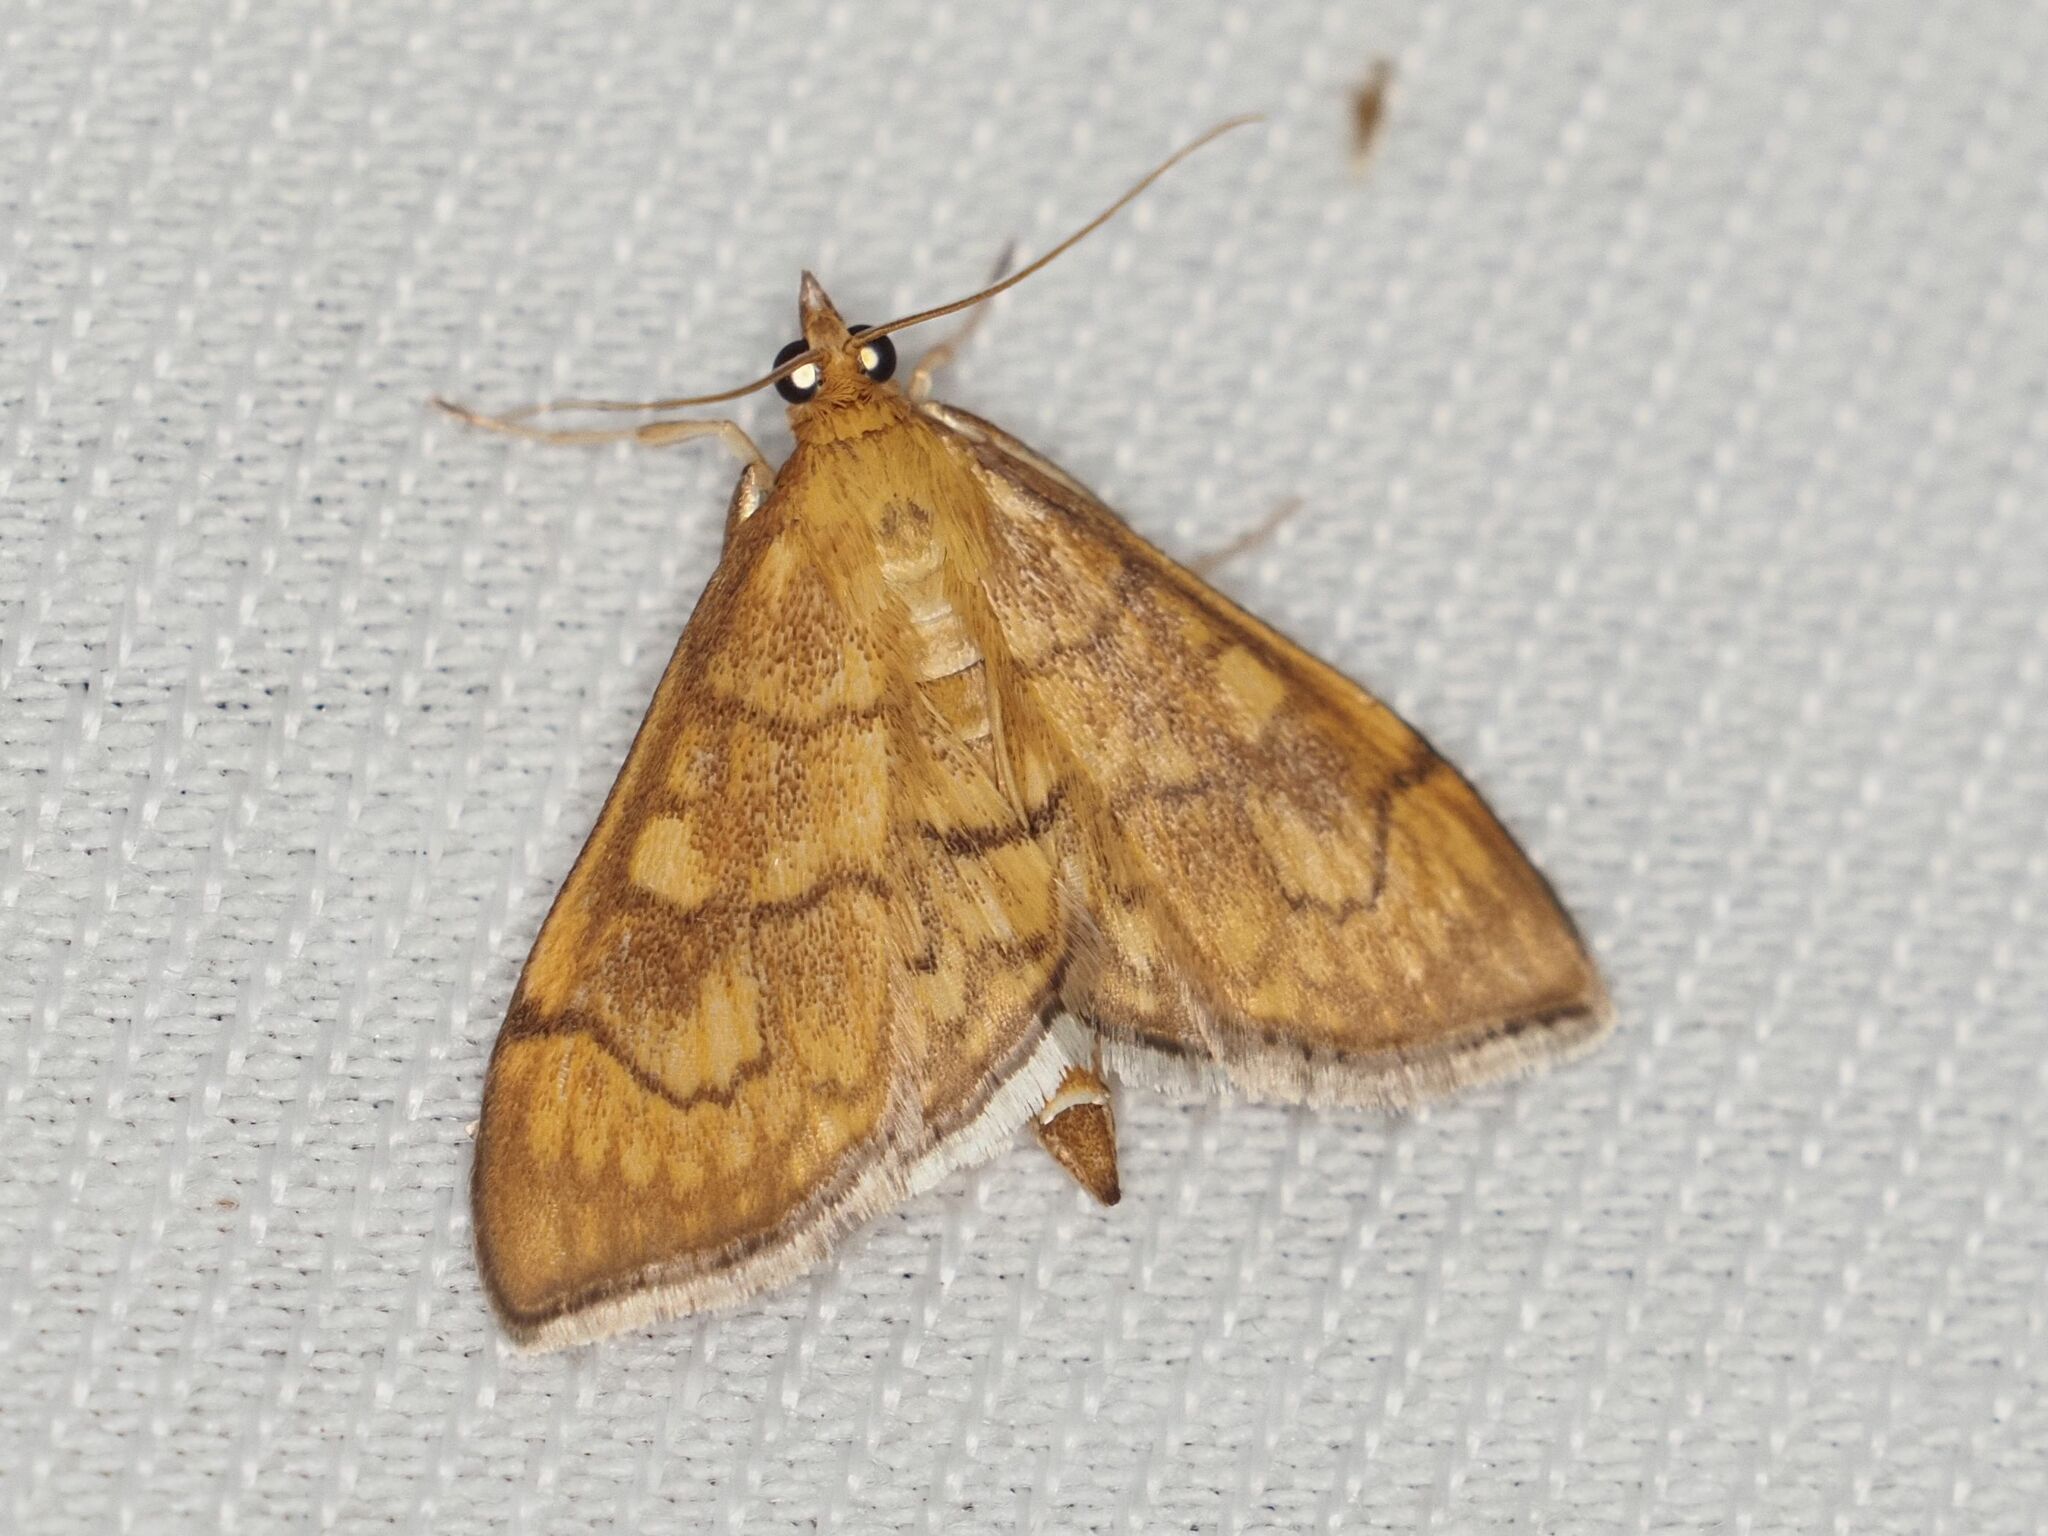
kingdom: Animalia
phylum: Arthropoda
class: Insecta
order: Lepidoptera
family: Crambidae
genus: Anania
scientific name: Anania verbascalis
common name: Golden pearl
